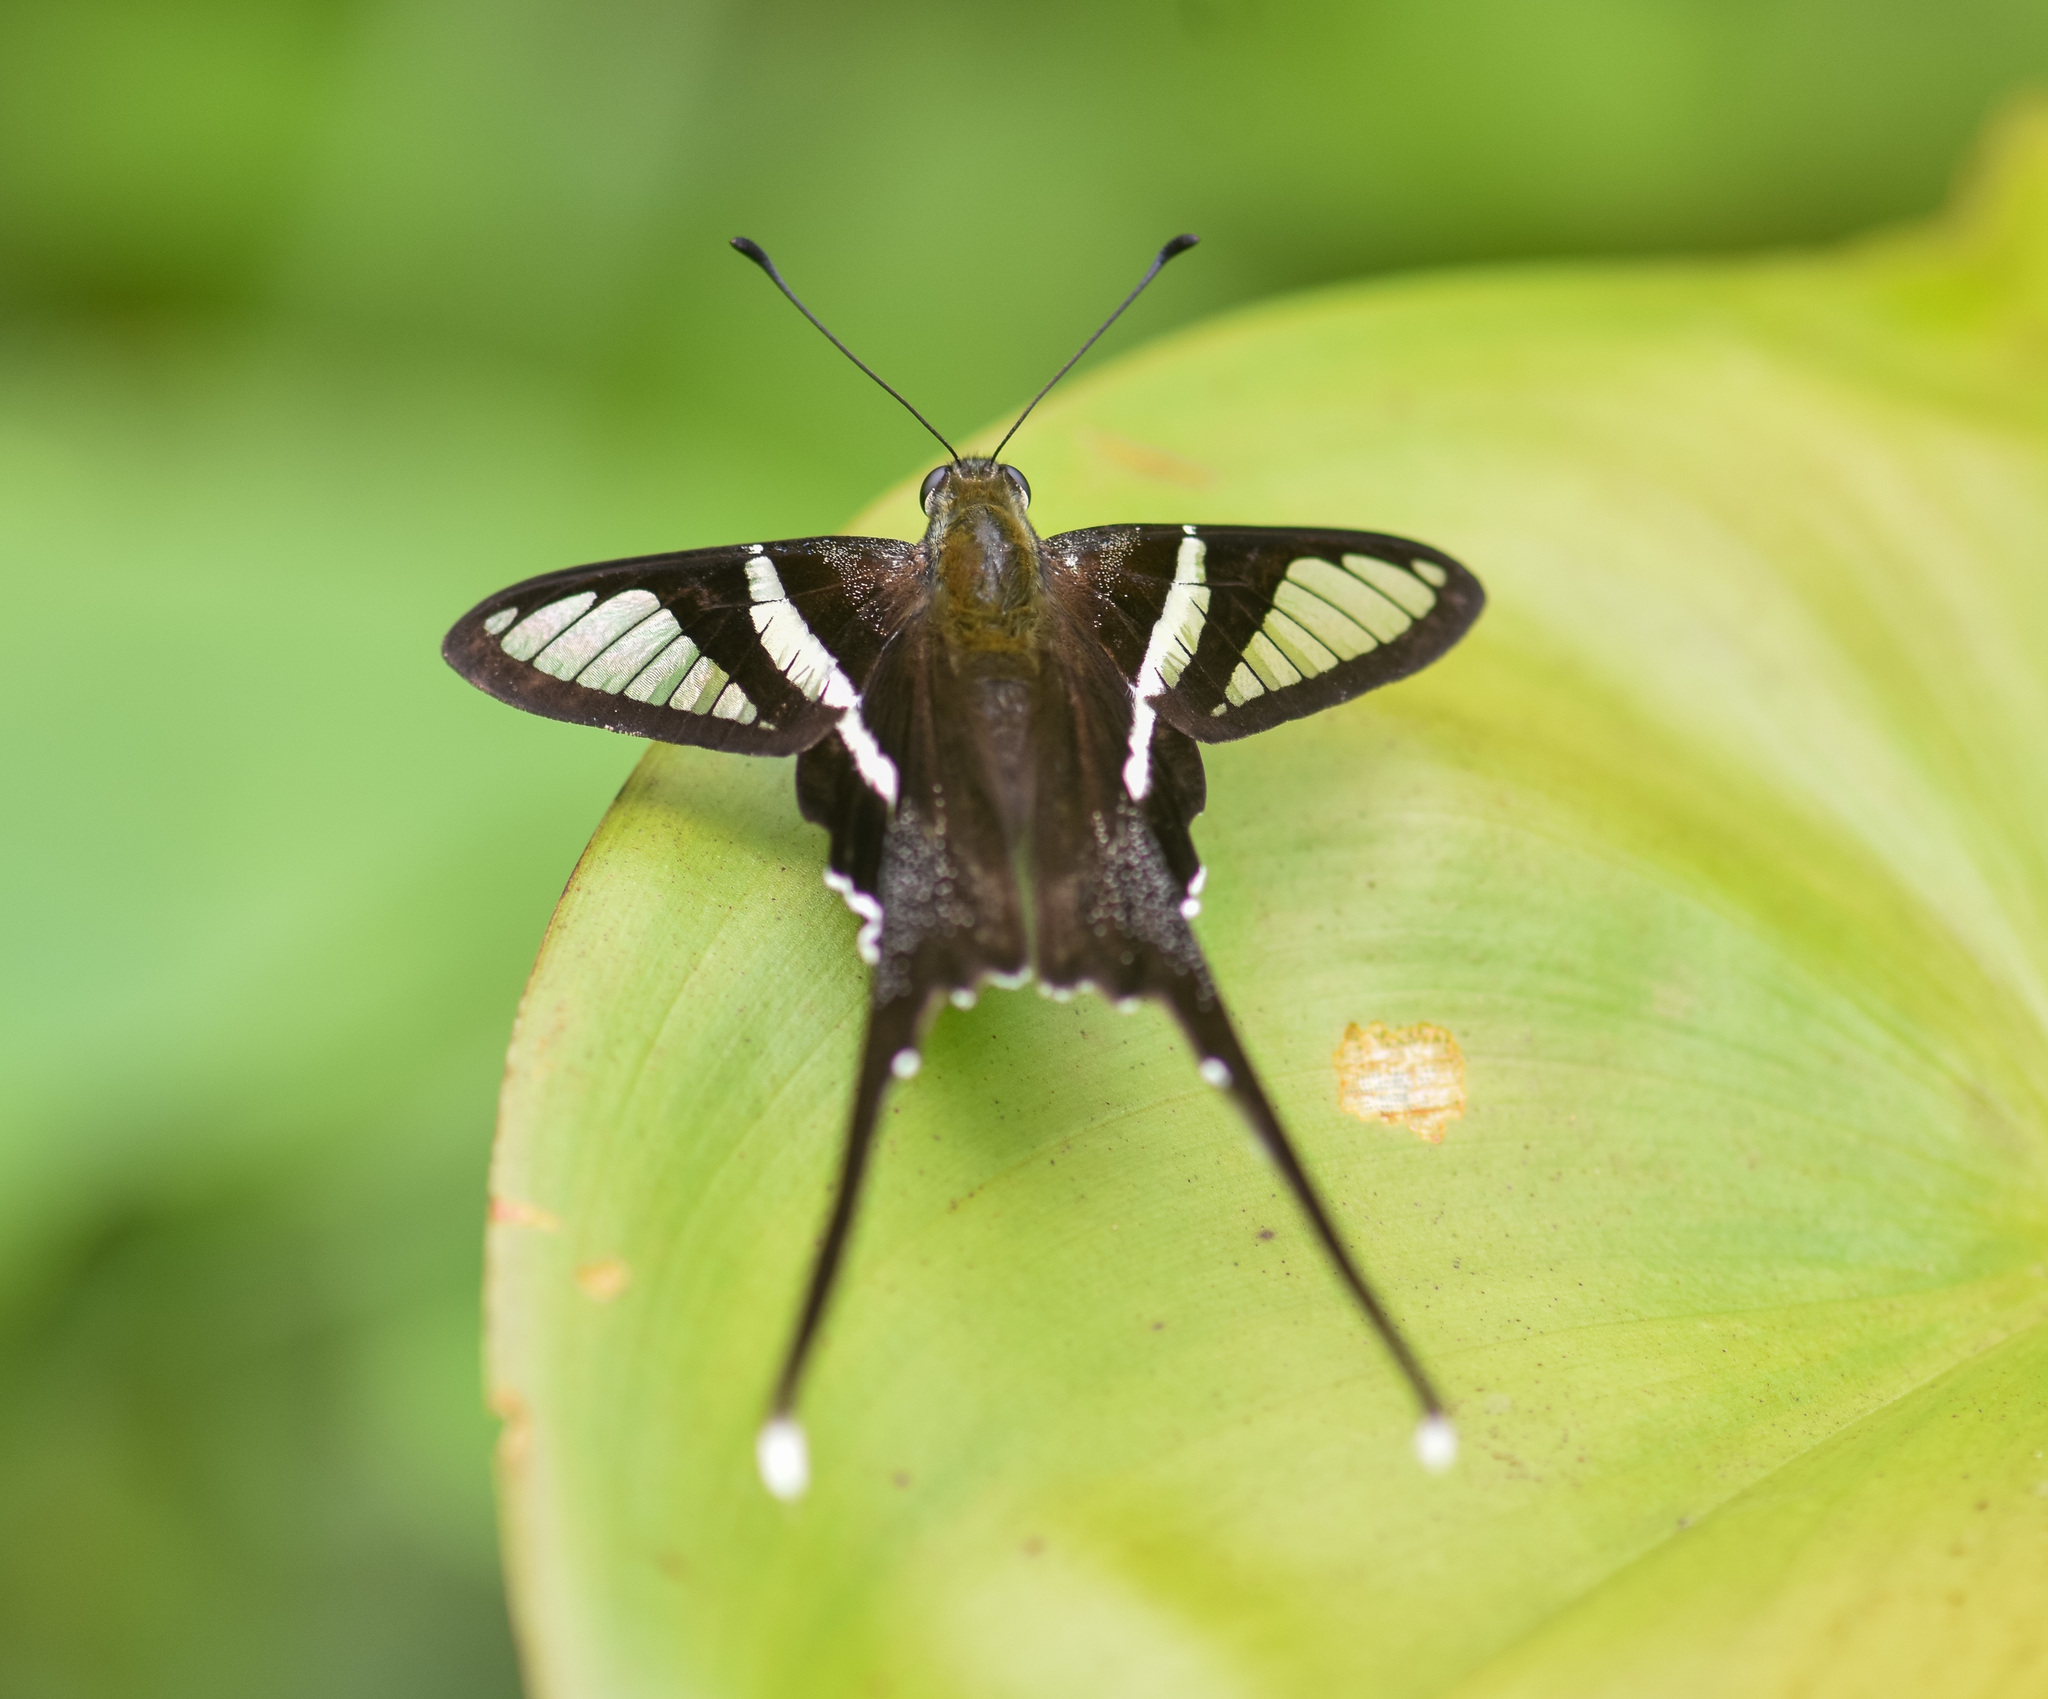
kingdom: Animalia
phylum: Arthropoda
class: Insecta
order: Lepidoptera
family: Papilionidae
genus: Lamproptera
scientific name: Lamproptera curius
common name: White dragontail
